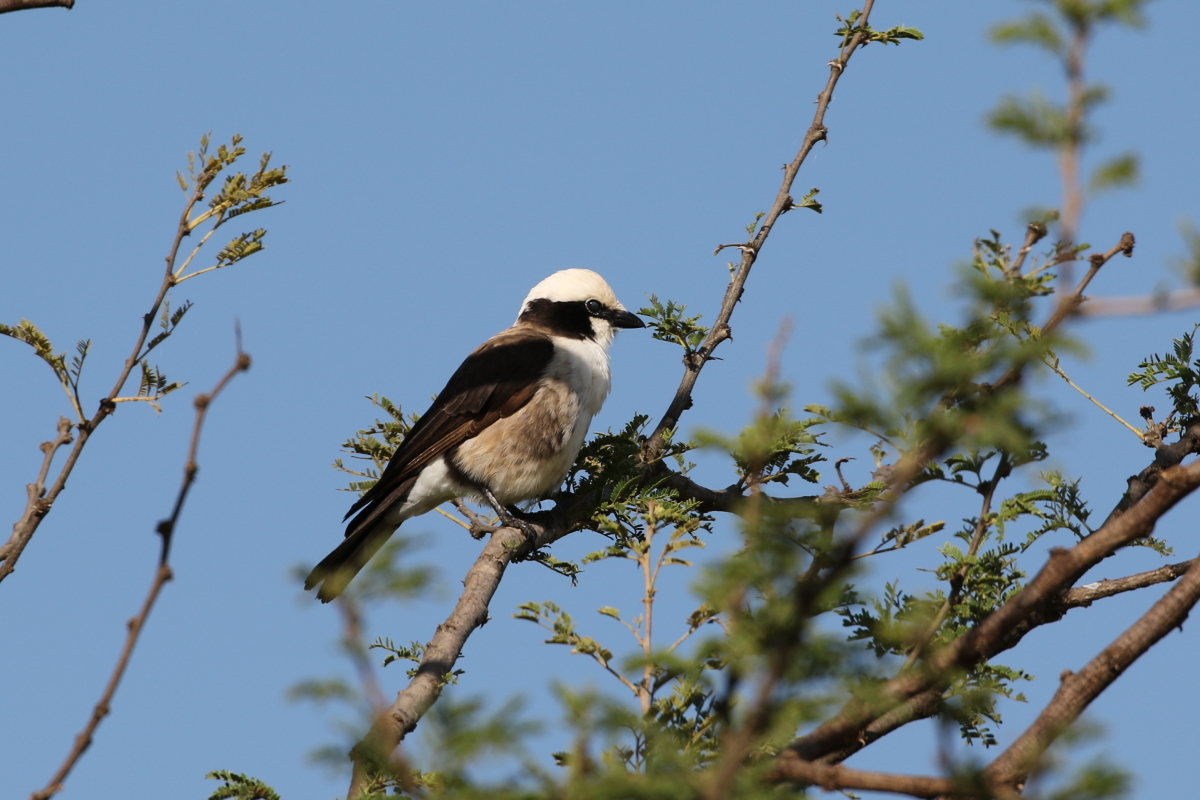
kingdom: Animalia
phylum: Chordata
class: Aves
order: Passeriformes
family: Laniidae
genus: Eurocephalus
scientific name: Eurocephalus ruppelli
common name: Northern white-crowned shrike
